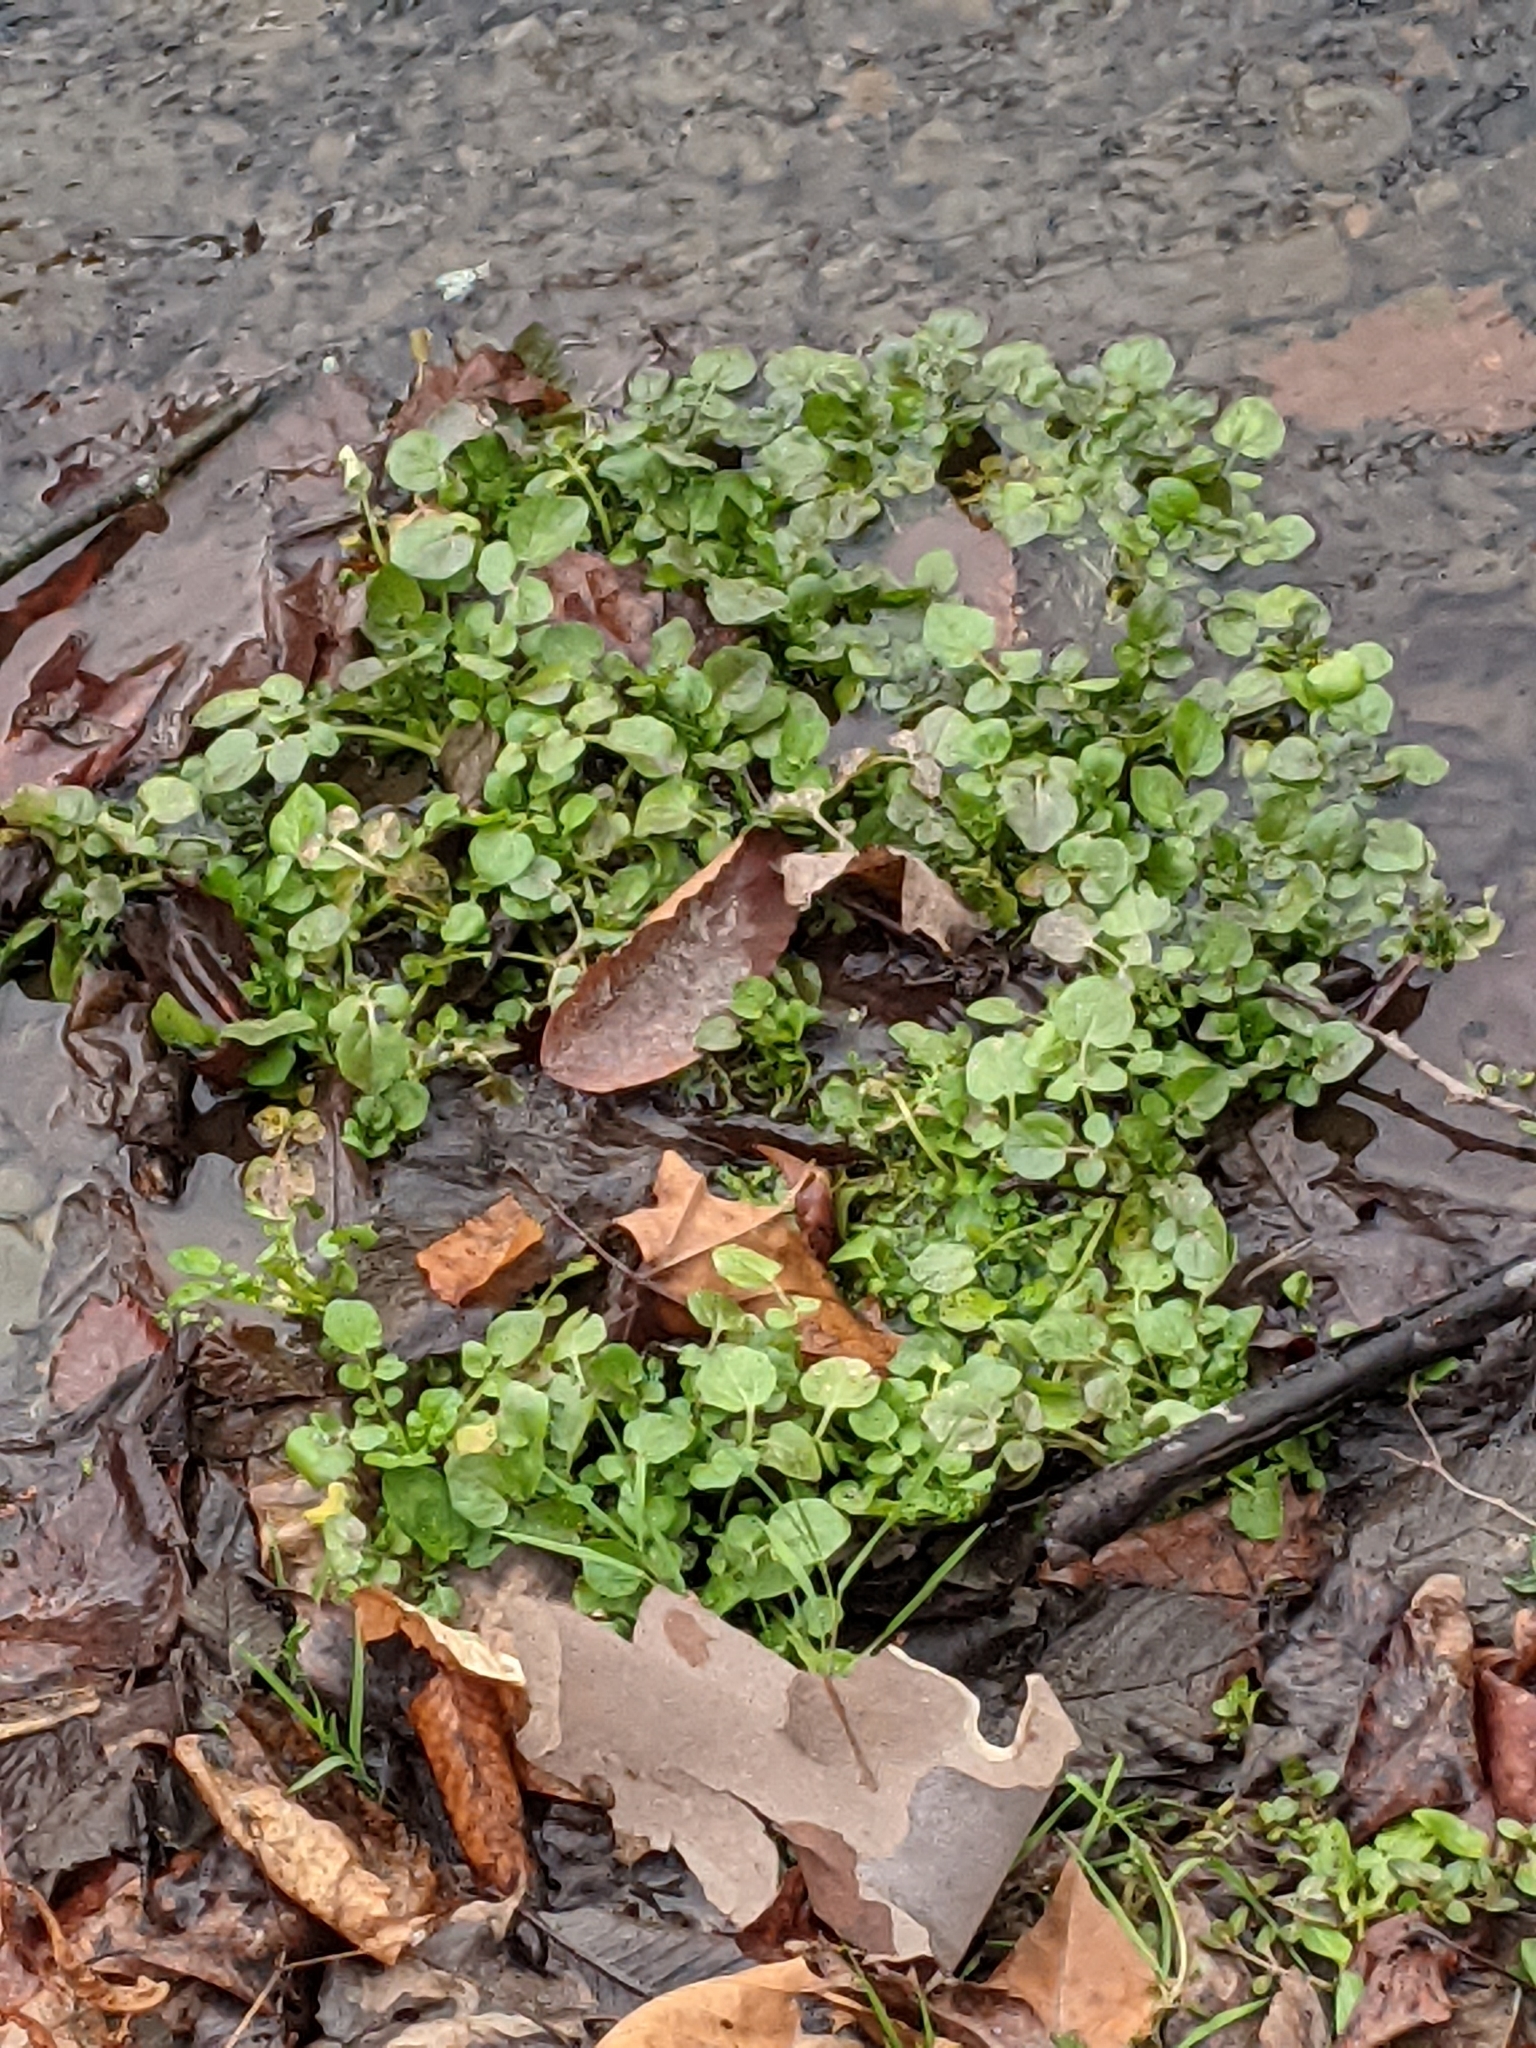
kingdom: Plantae
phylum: Tracheophyta
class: Magnoliopsida
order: Brassicales
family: Brassicaceae
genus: Nasturtium
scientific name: Nasturtium officinale
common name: Watercress
